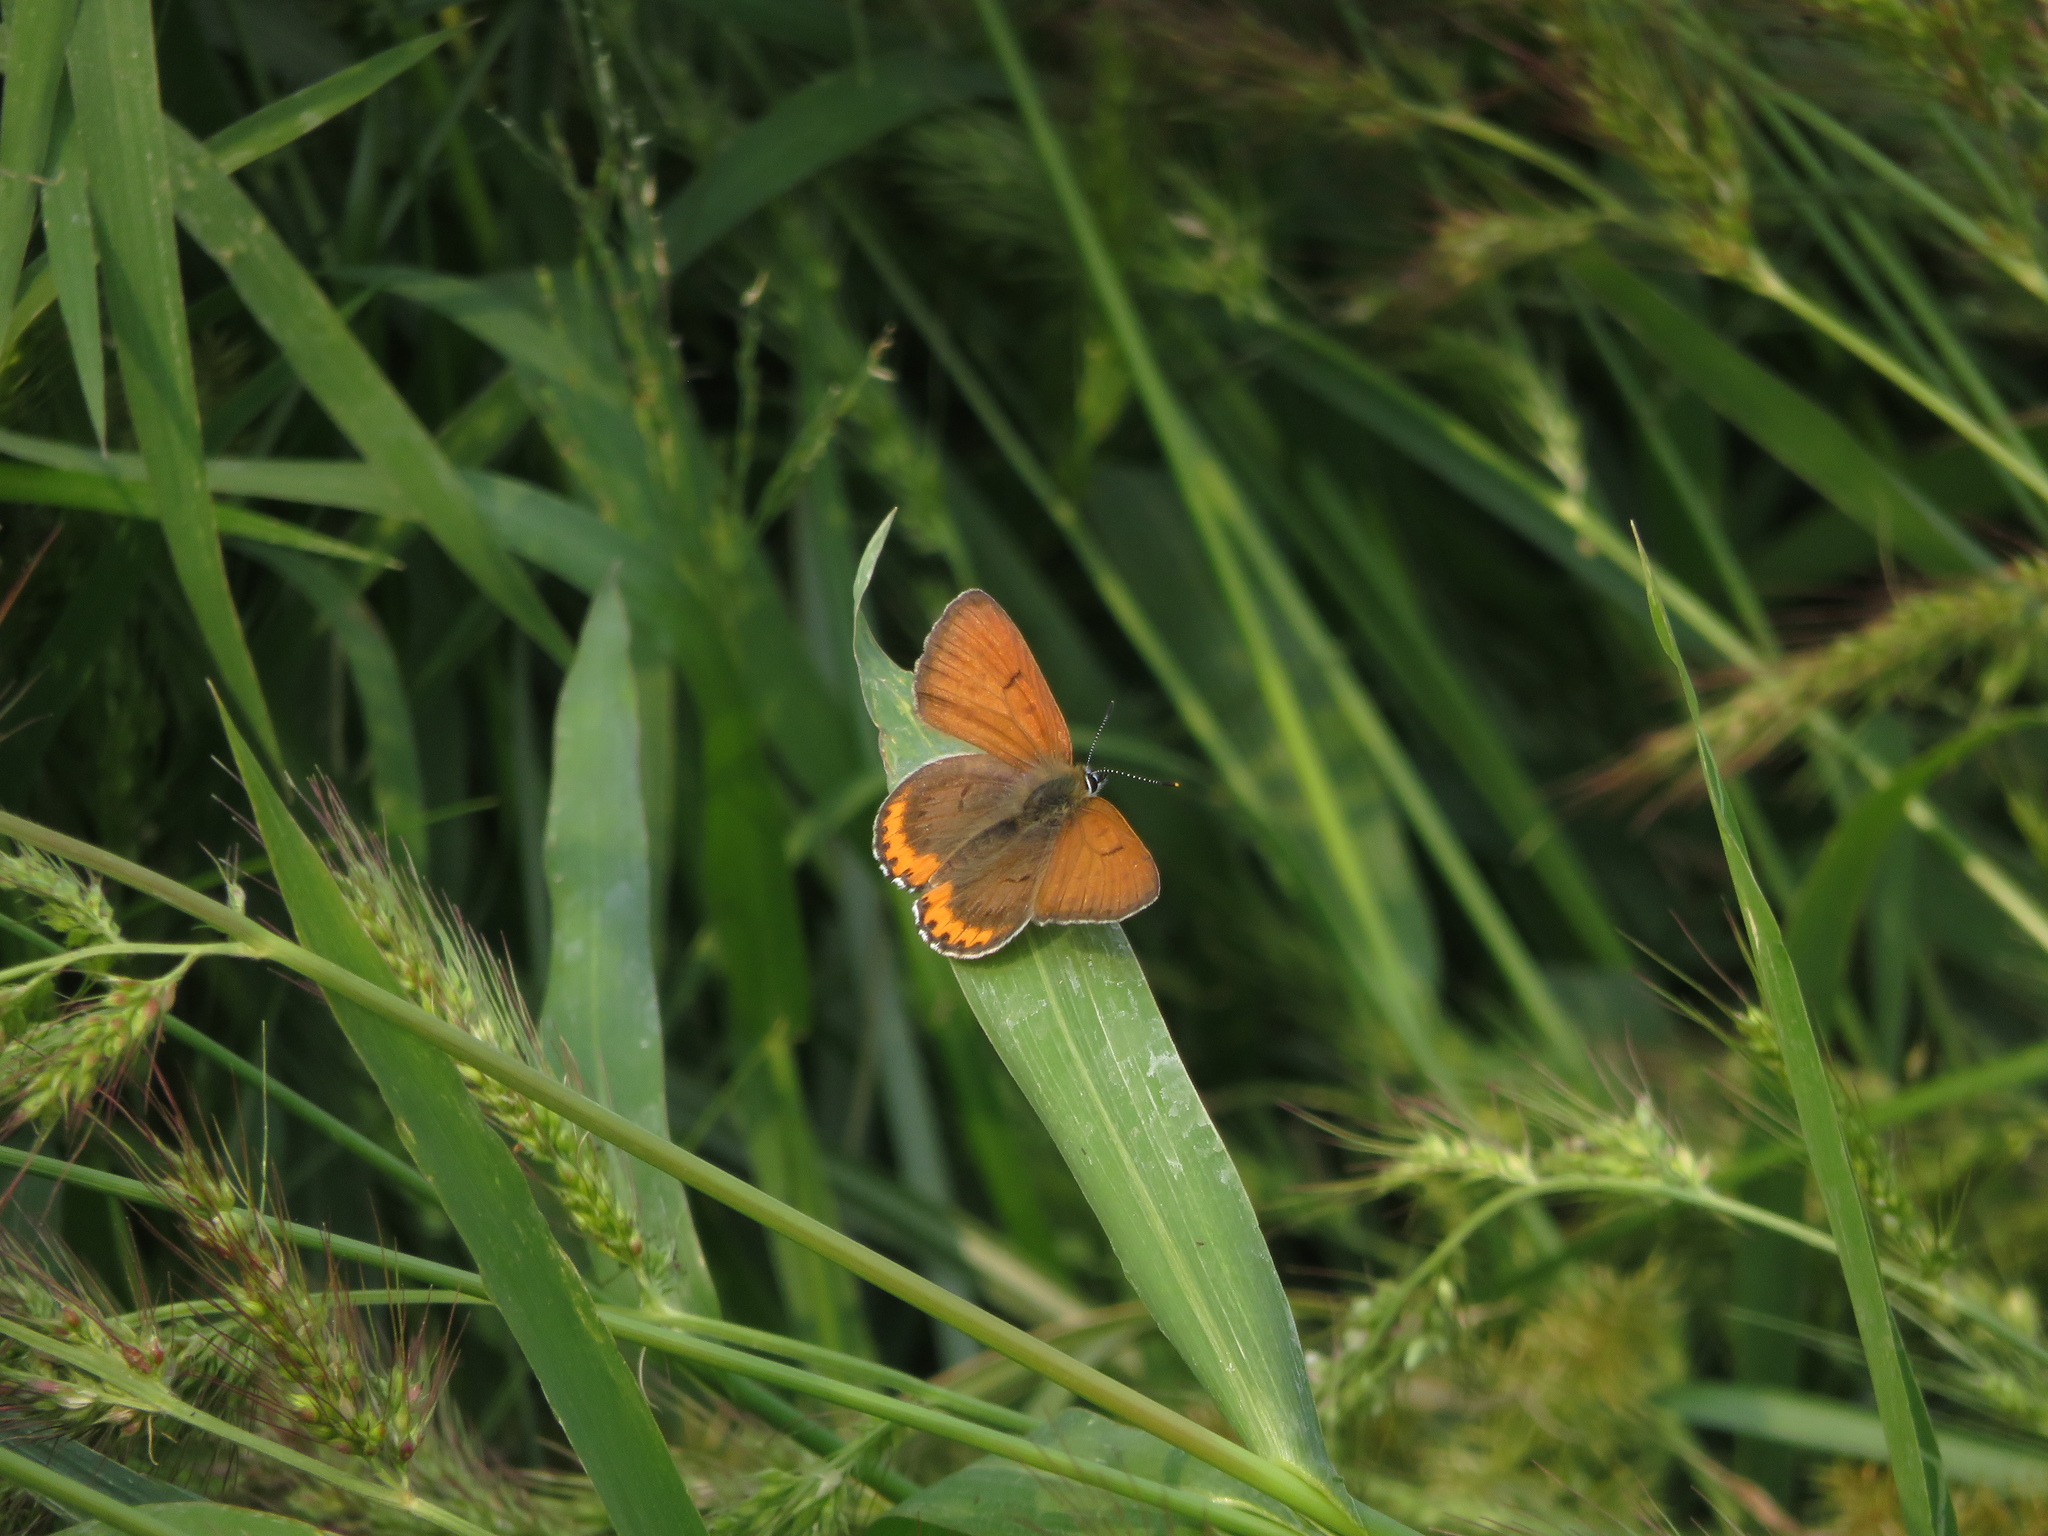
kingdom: Animalia
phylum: Arthropoda
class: Insecta
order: Lepidoptera
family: Lycaenidae
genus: Tharsalea
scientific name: Tharsalea hyllus
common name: Bronze copper
